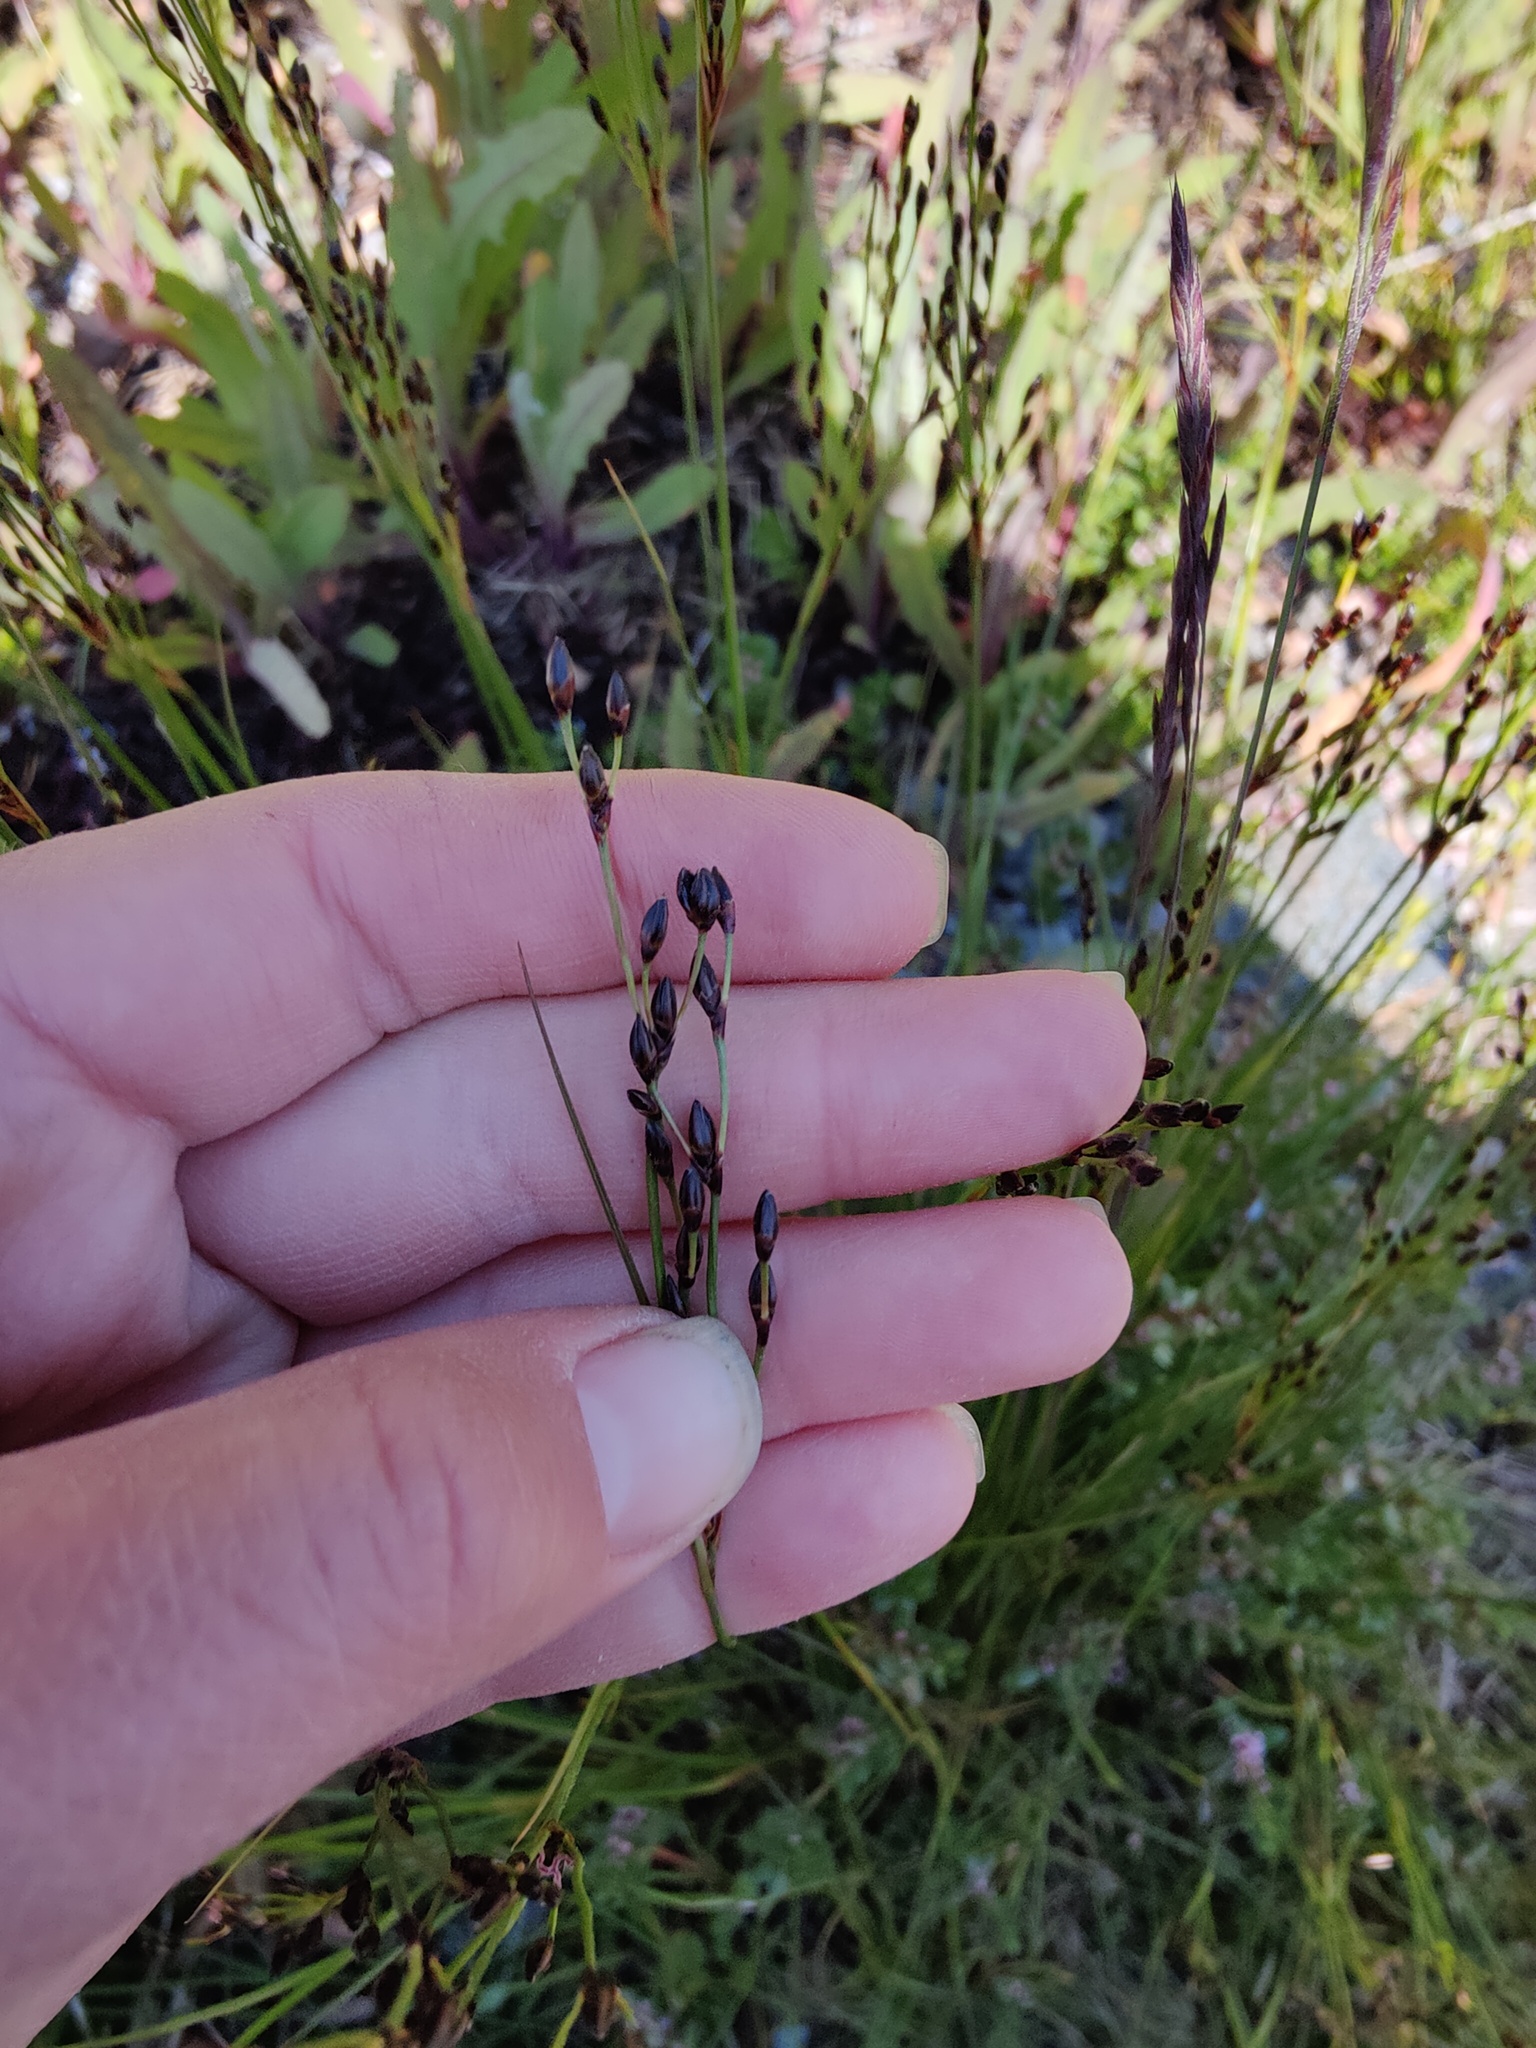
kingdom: Plantae
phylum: Tracheophyta
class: Liliopsida
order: Poales
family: Juncaceae
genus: Juncus
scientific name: Juncus gerardi
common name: Saltmarsh rush
